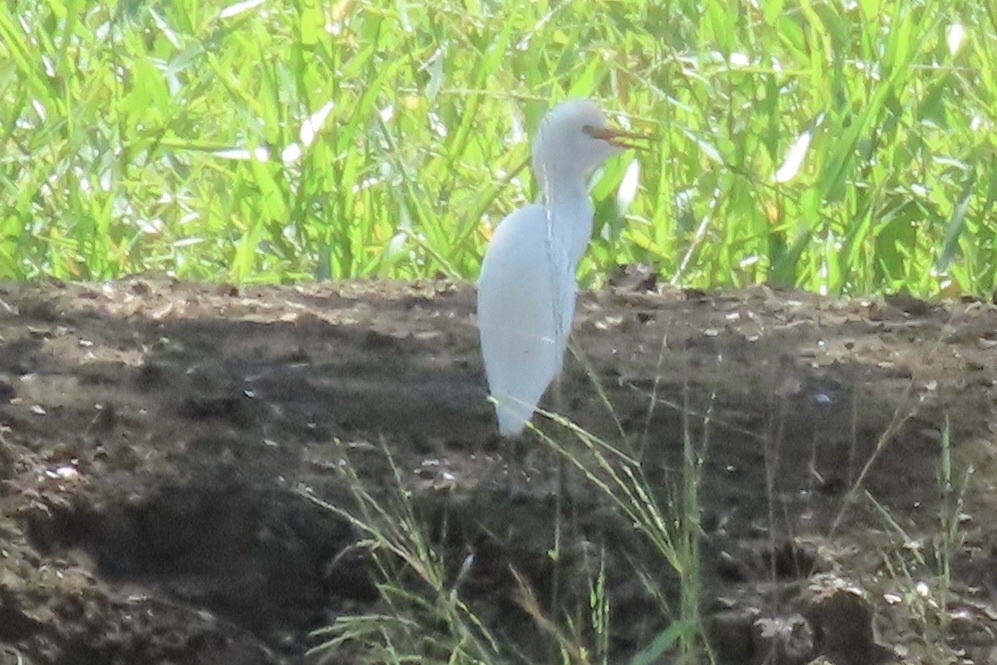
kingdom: Animalia
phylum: Chordata
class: Aves
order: Pelecaniformes
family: Ardeidae
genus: Bubulcus
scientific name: Bubulcus ibis
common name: Cattle egret
